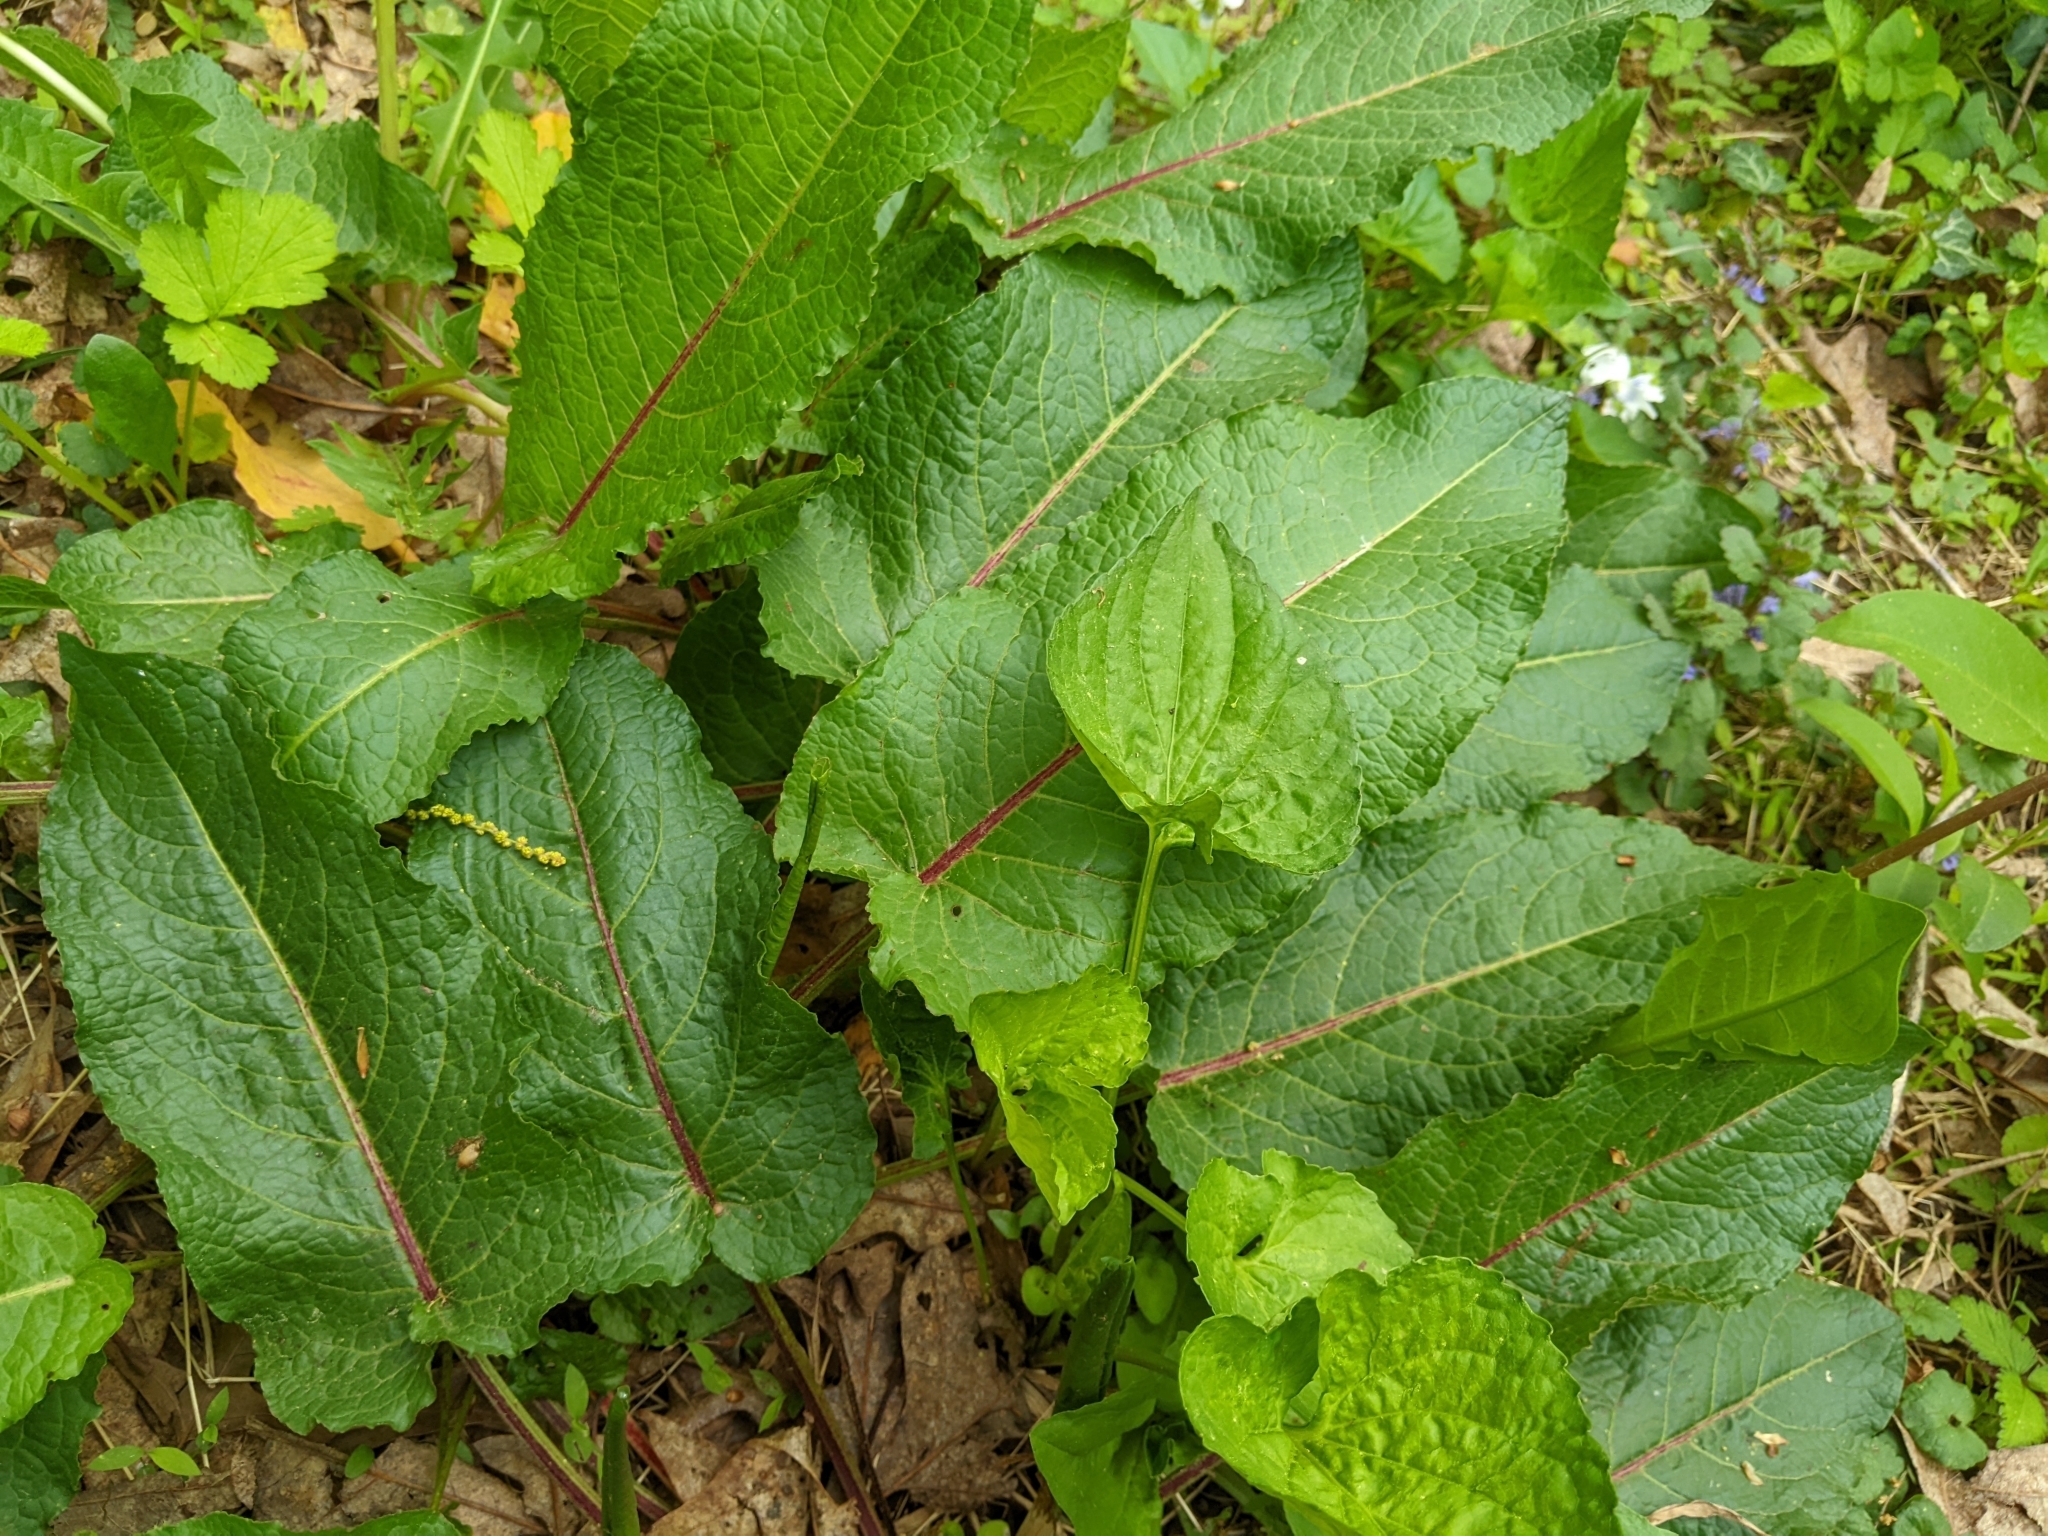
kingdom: Plantae
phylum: Tracheophyta
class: Magnoliopsida
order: Caryophyllales
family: Polygonaceae
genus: Rumex
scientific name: Rumex obtusifolius
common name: Bitter dock
